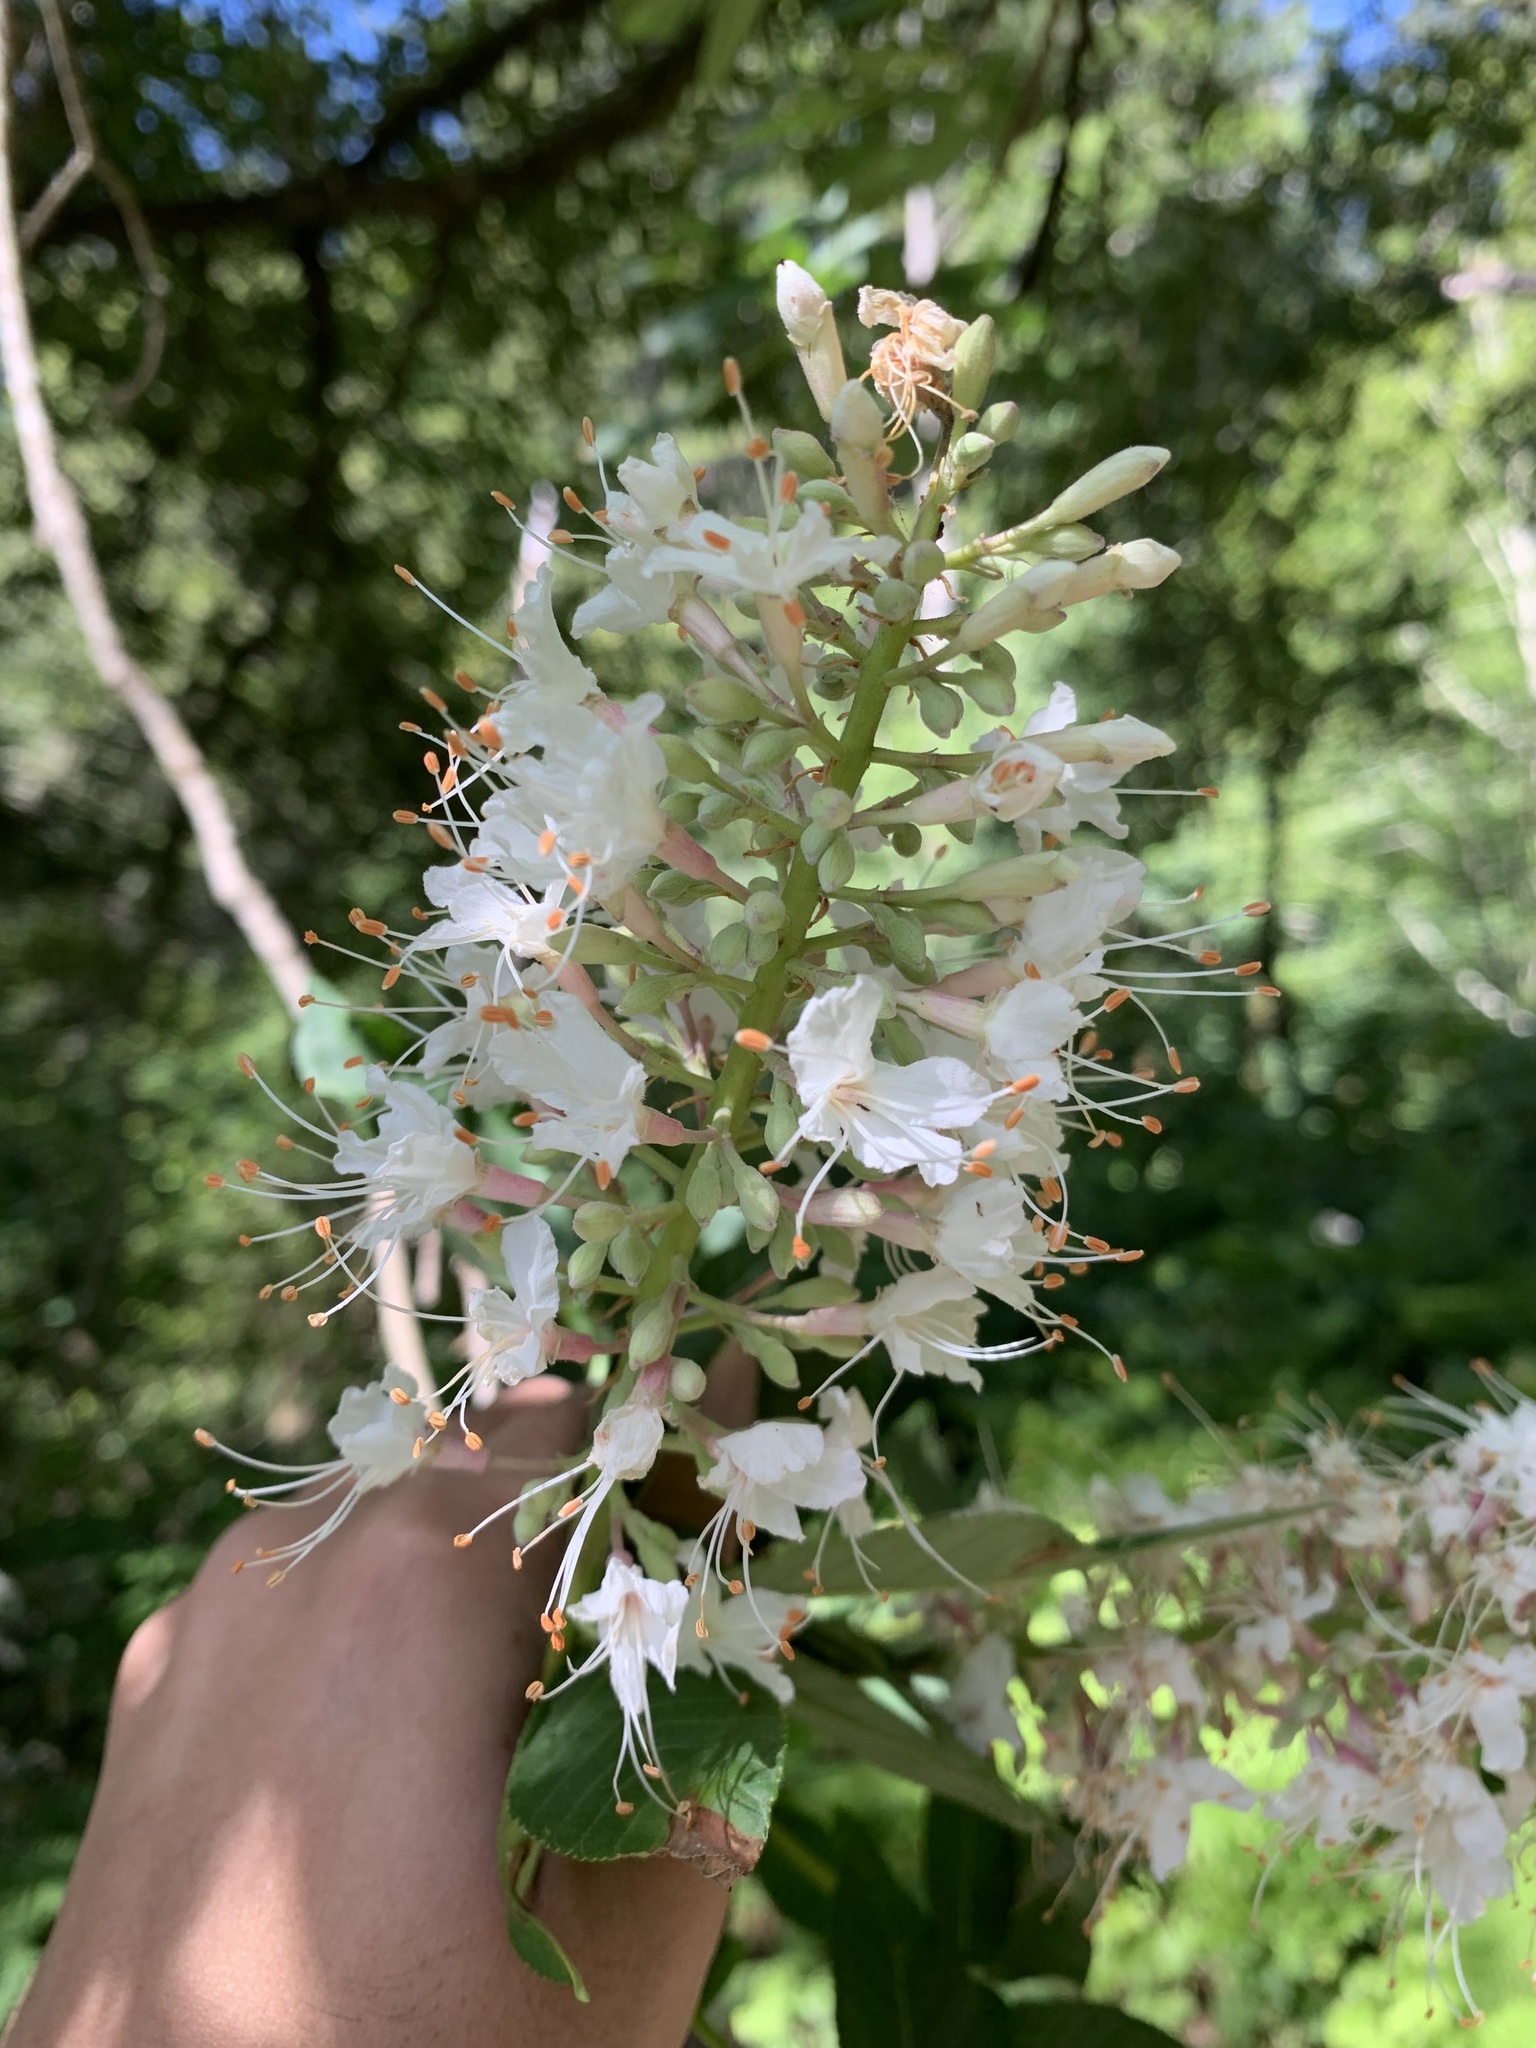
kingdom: Plantae
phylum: Tracheophyta
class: Magnoliopsida
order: Sapindales
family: Sapindaceae
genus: Aesculus
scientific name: Aesculus californica
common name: California buckeye
